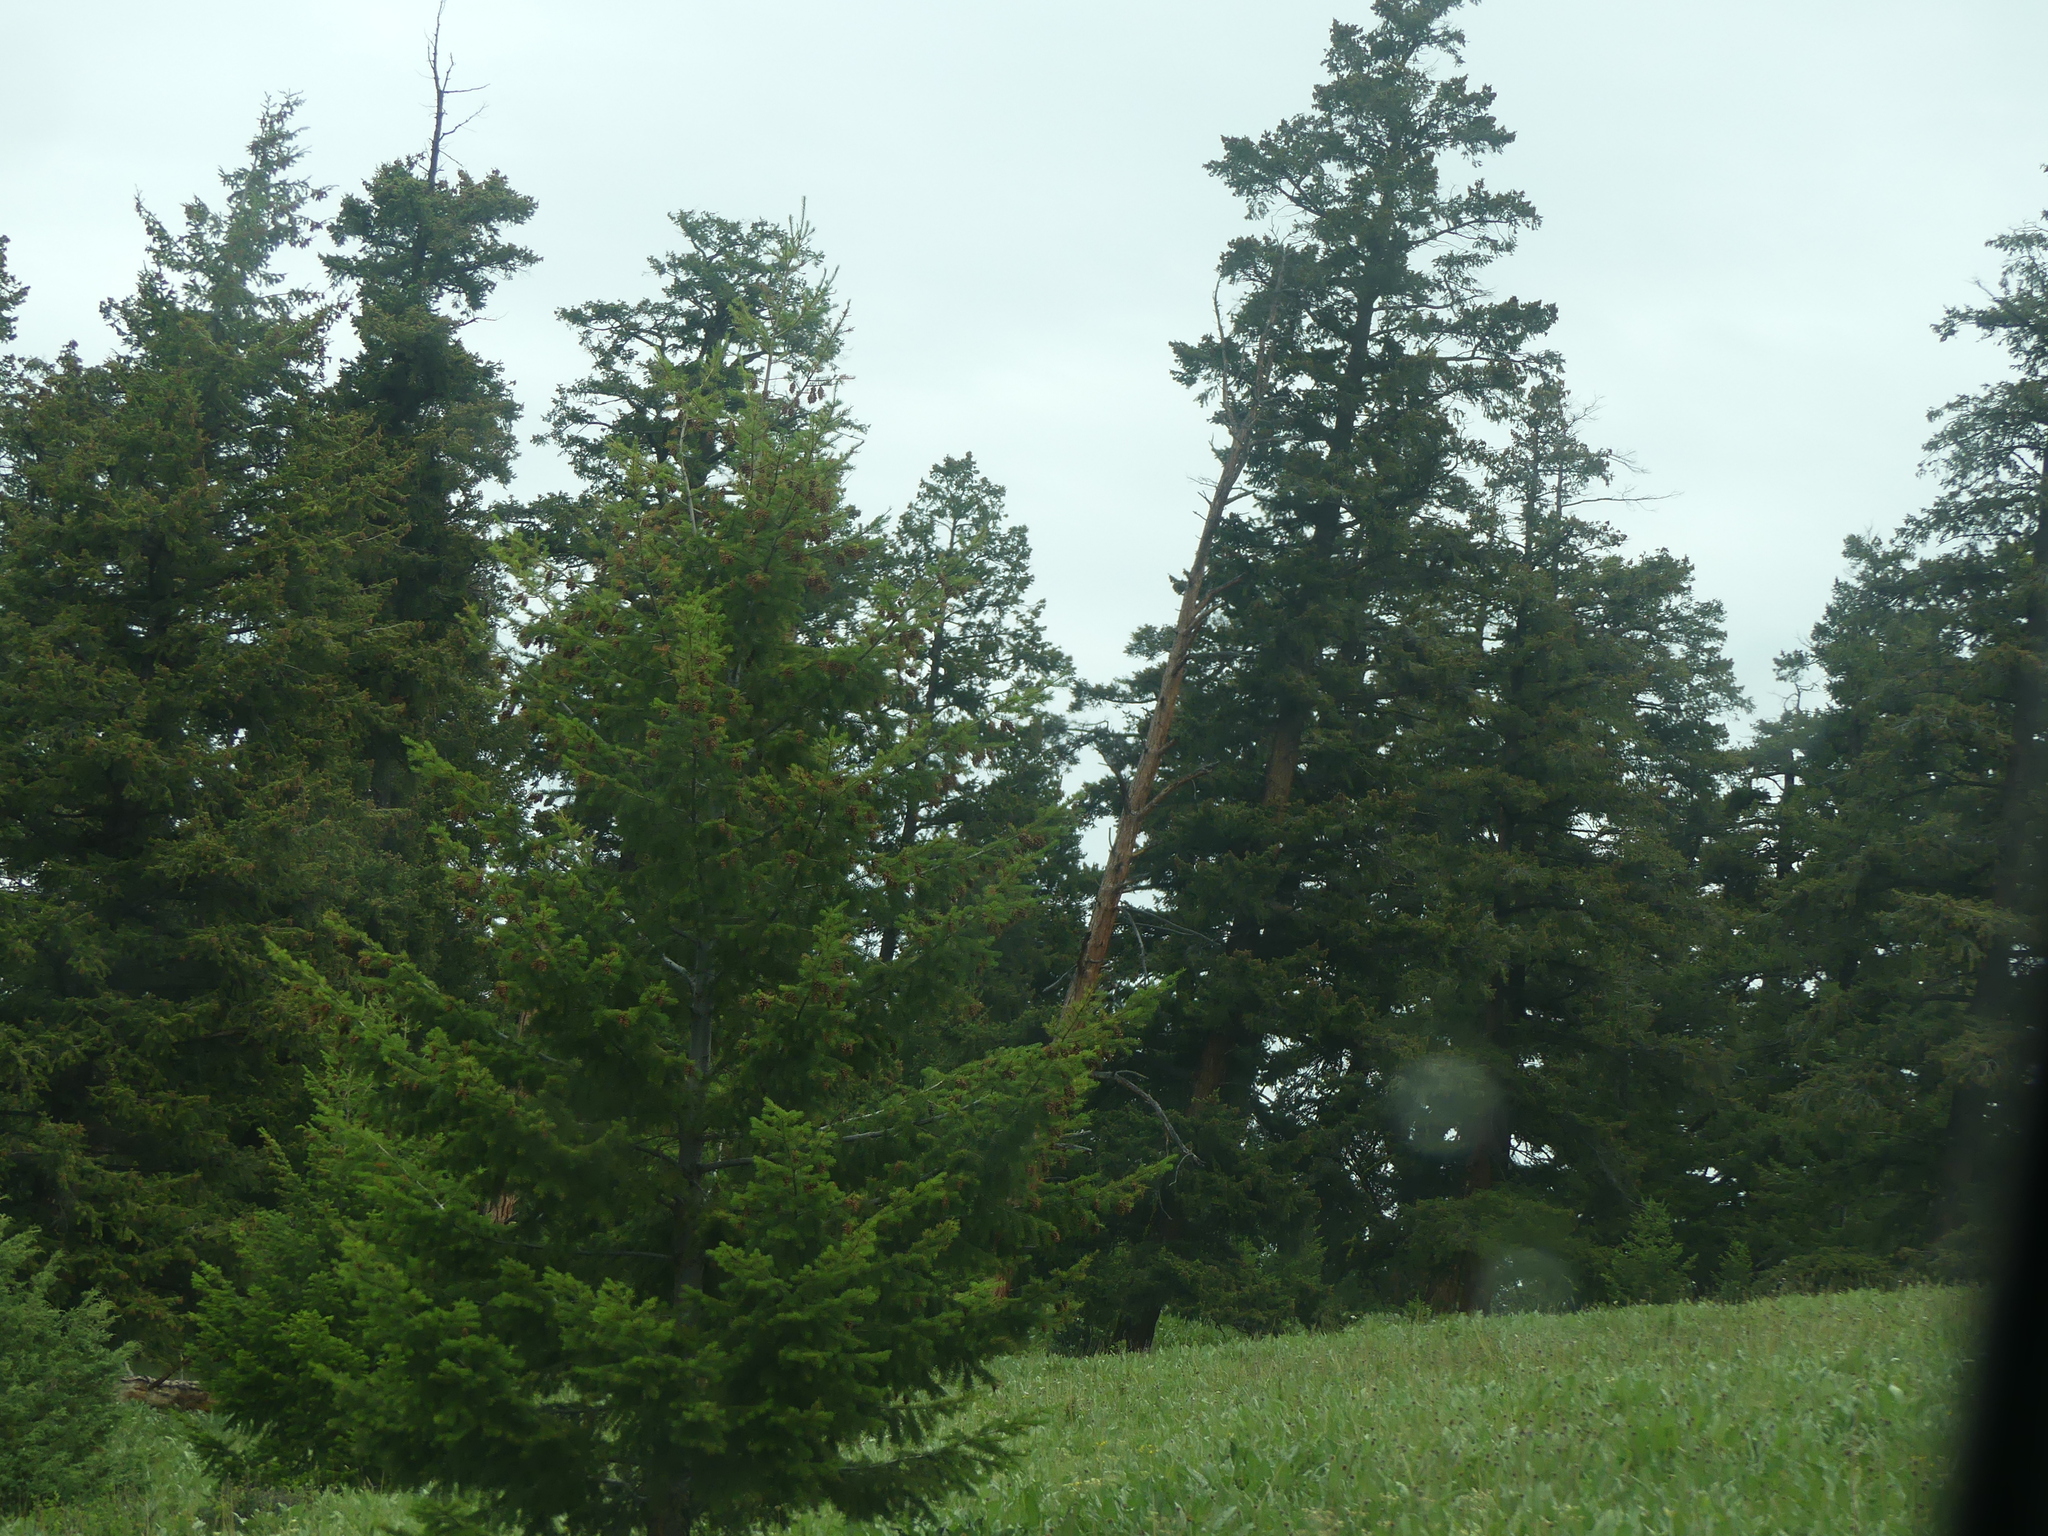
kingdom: Plantae
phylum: Tracheophyta
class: Pinopsida
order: Pinales
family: Pinaceae
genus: Pseudotsuga
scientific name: Pseudotsuga menziesii
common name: Douglas fir
